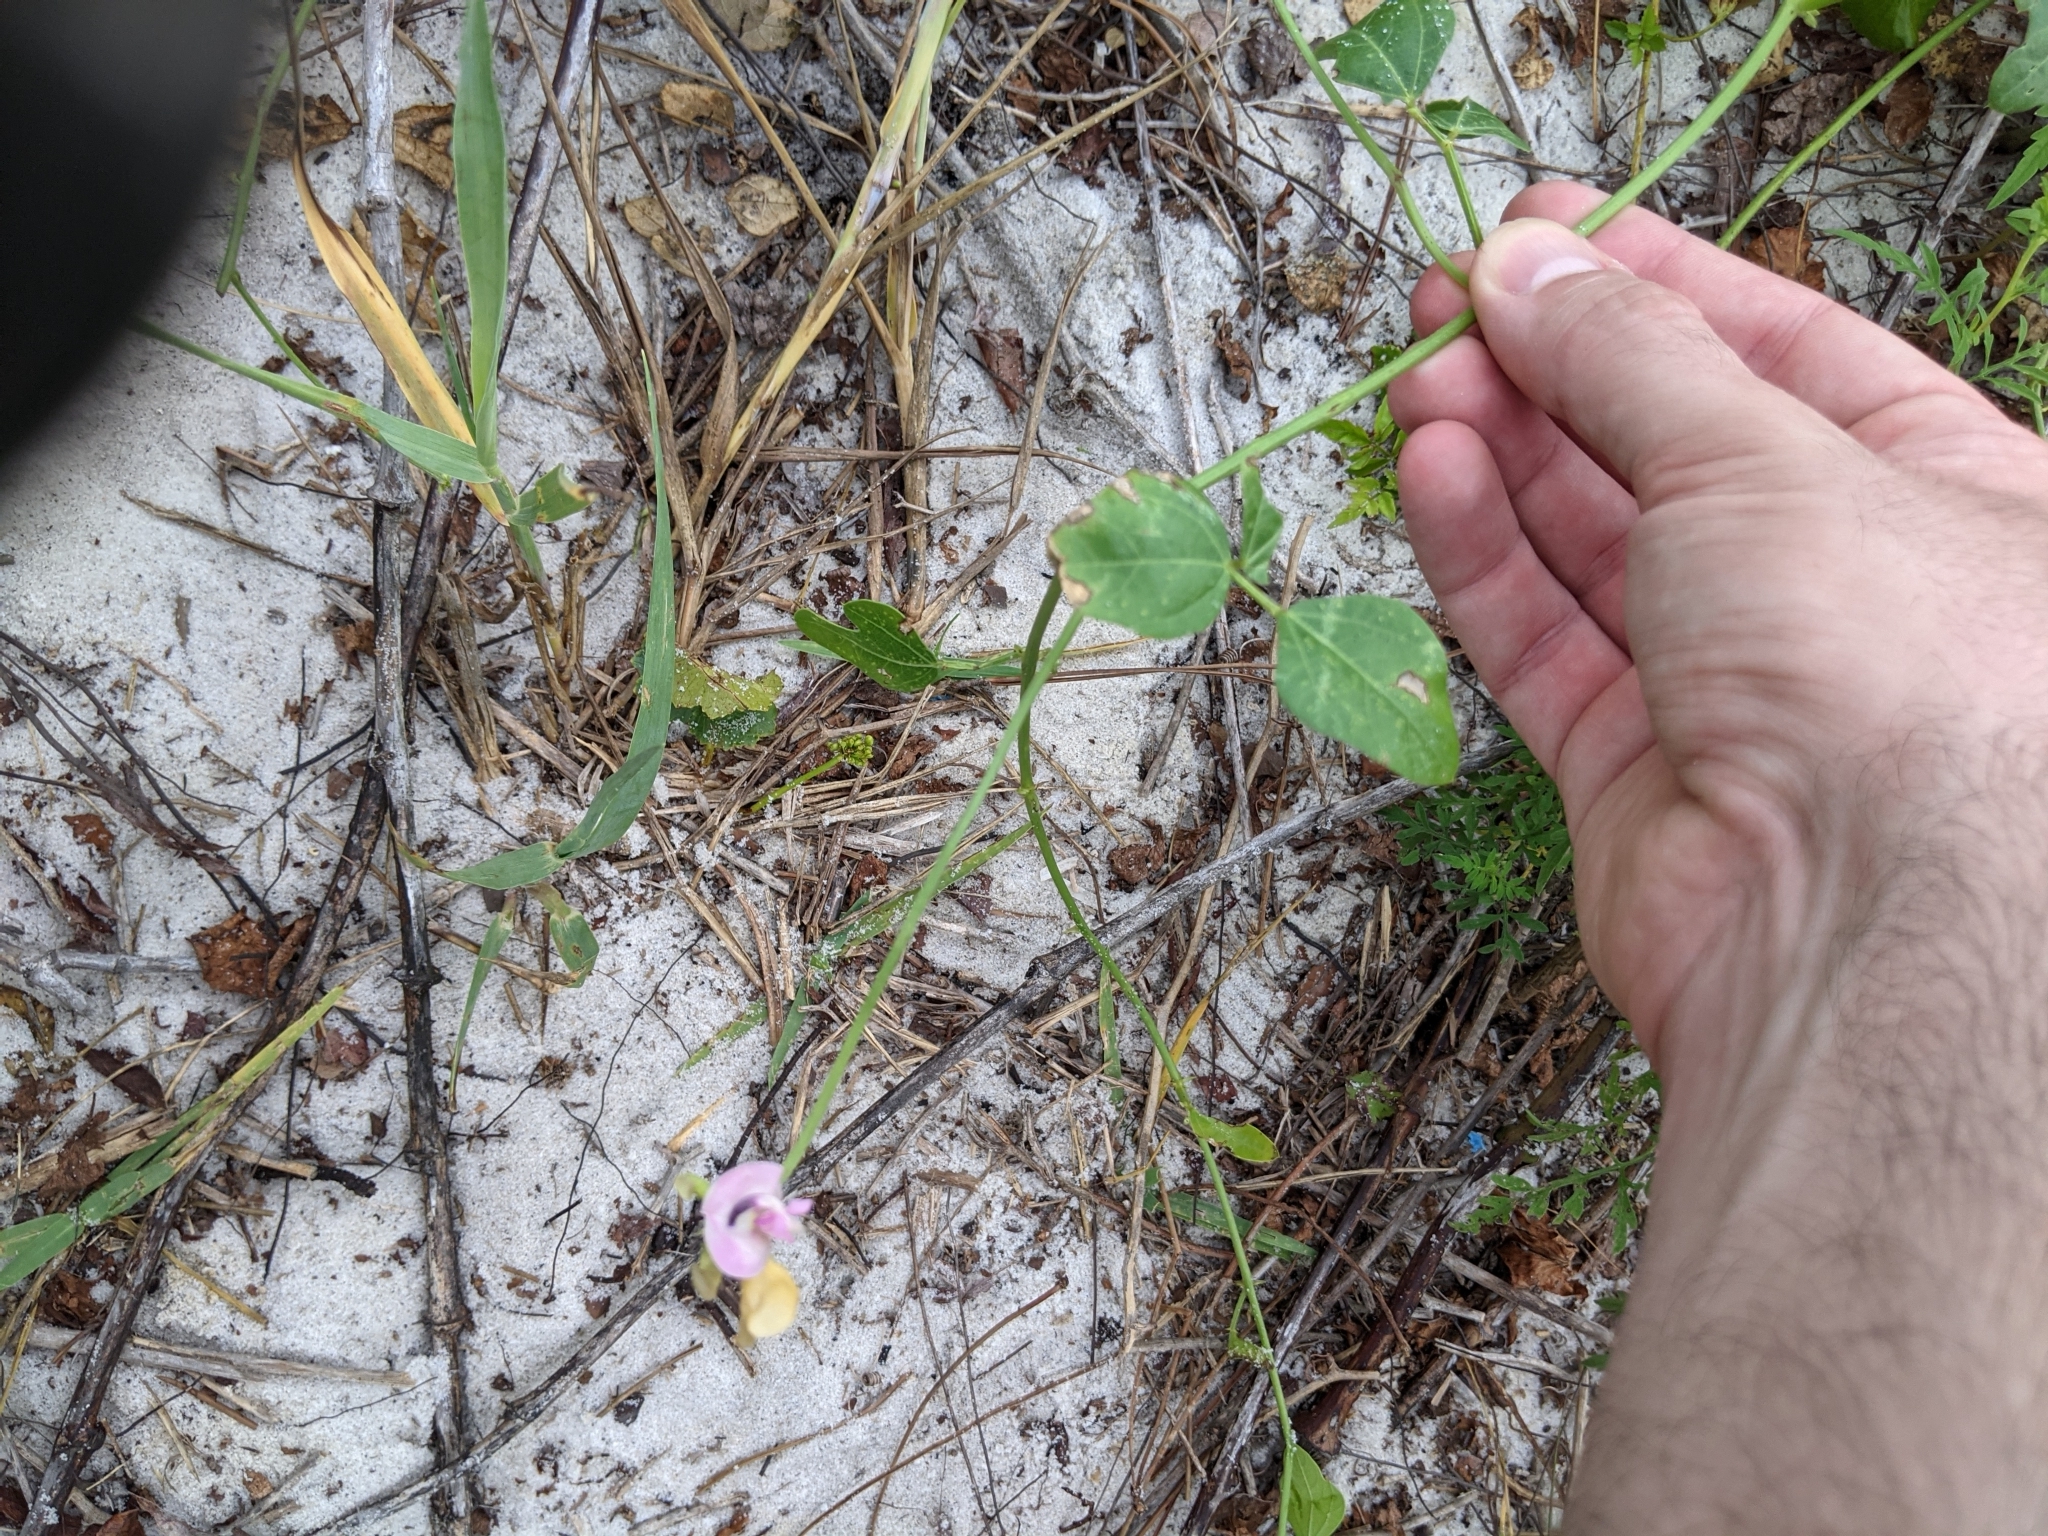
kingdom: Plantae
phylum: Tracheophyta
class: Magnoliopsida
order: Fabales
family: Fabaceae
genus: Strophostyles
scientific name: Strophostyles helvola
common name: Trailing wild bean
